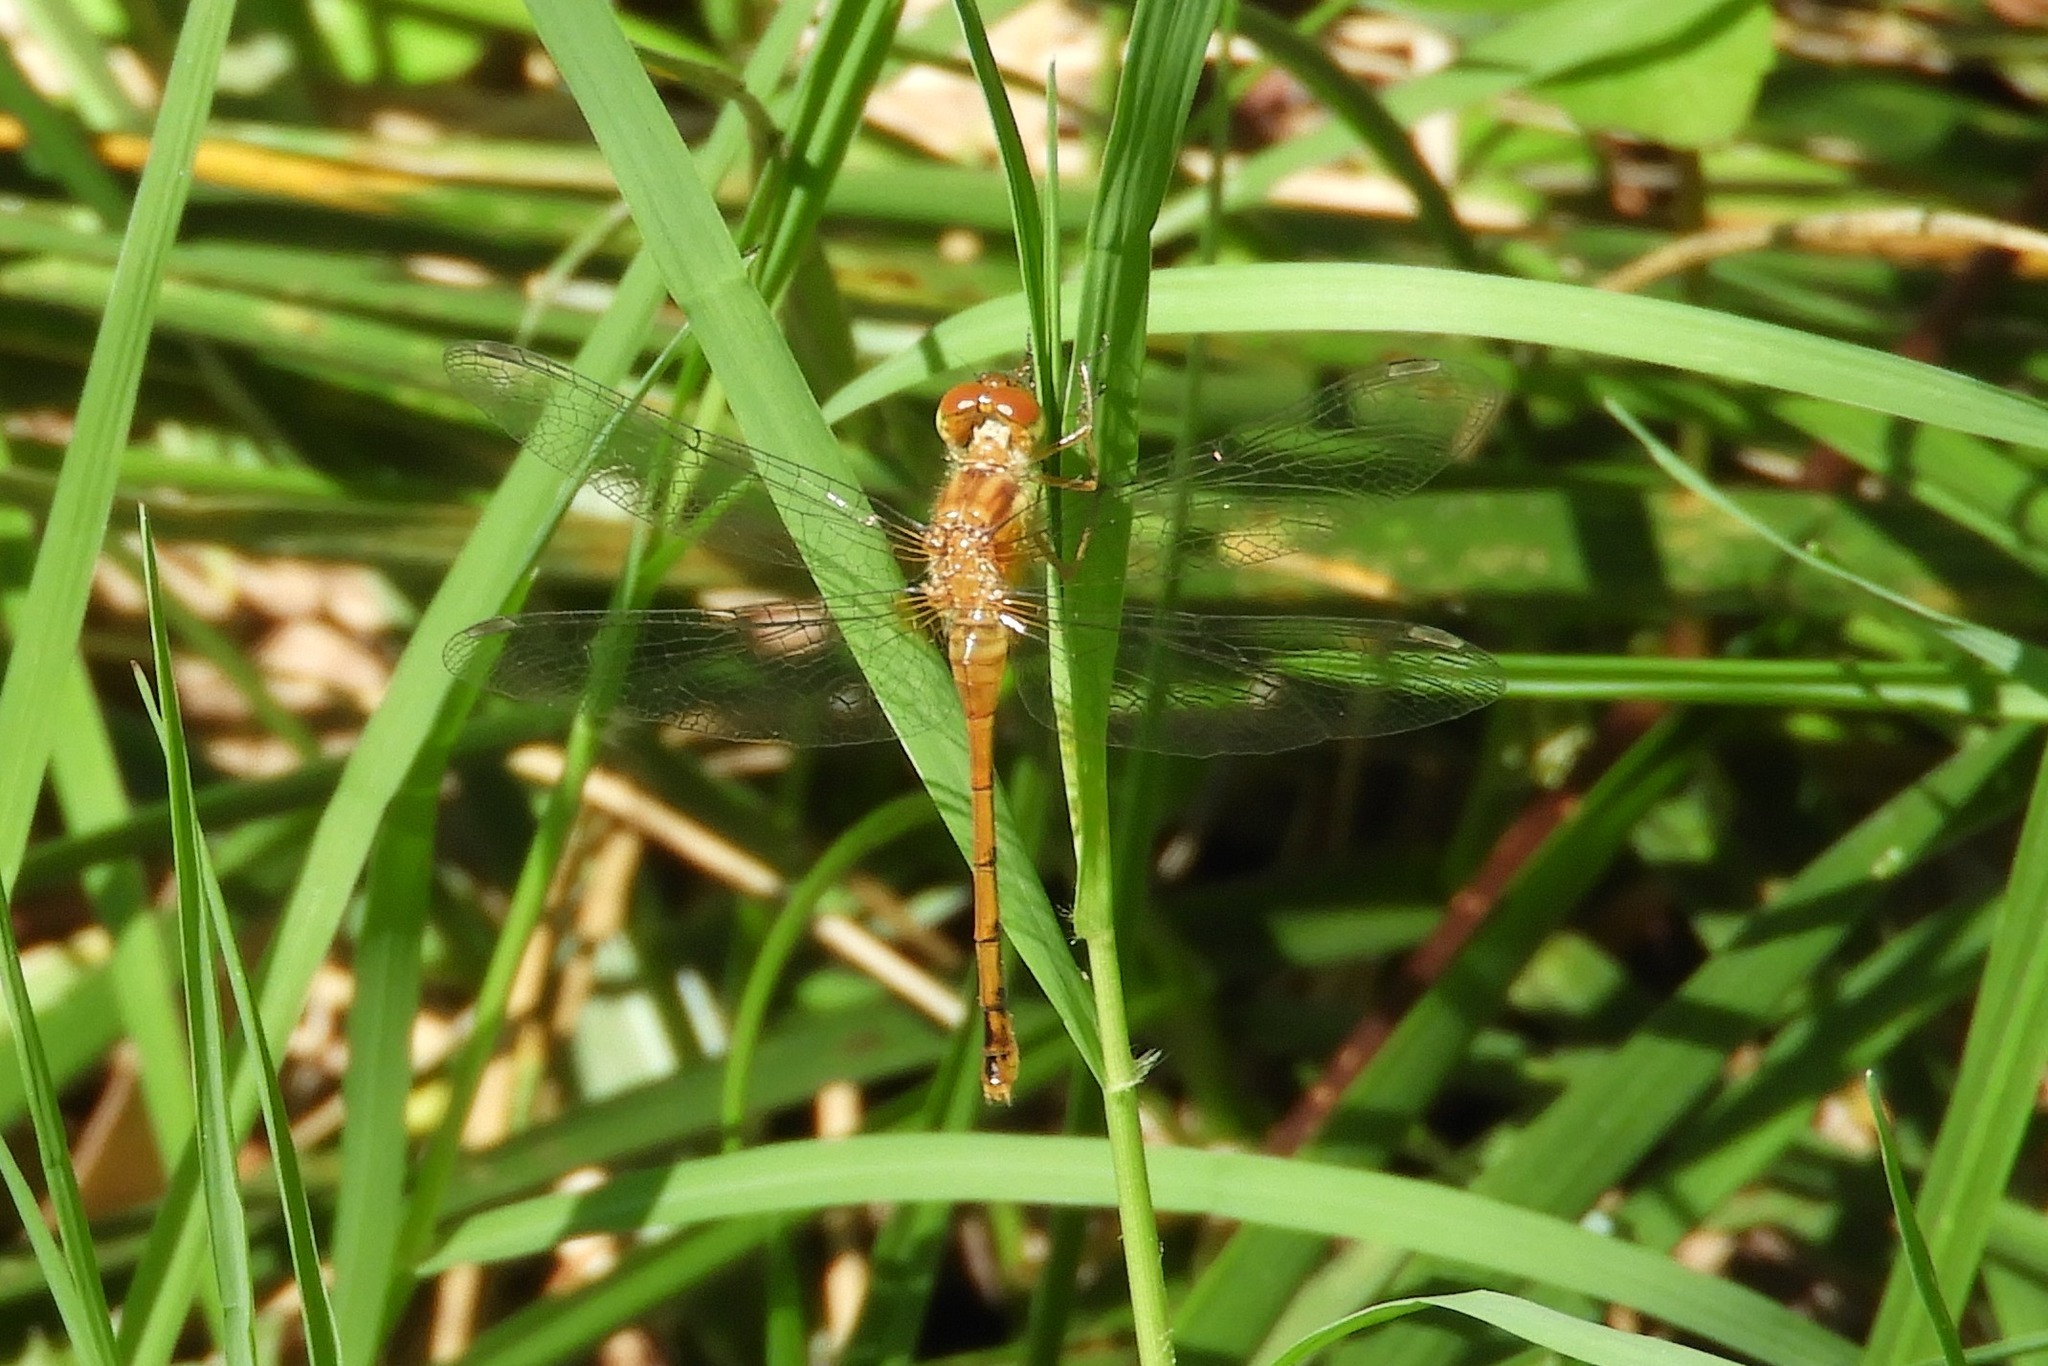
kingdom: Animalia
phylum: Arthropoda
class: Insecta
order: Odonata
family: Libellulidae
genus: Sympetrum
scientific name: Sympetrum vicinum
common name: Autumn meadowhawk
